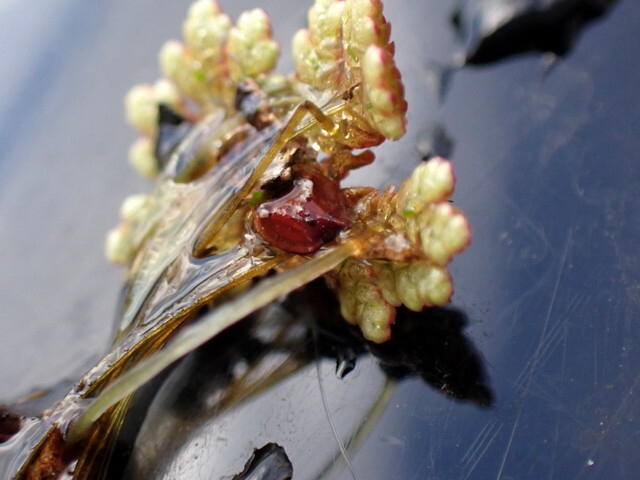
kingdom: Plantae
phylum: Tracheophyta
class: Polypodiopsida
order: Salviniales
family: Salviniaceae
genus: Azolla
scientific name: Azolla filiculoides
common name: Water fern
